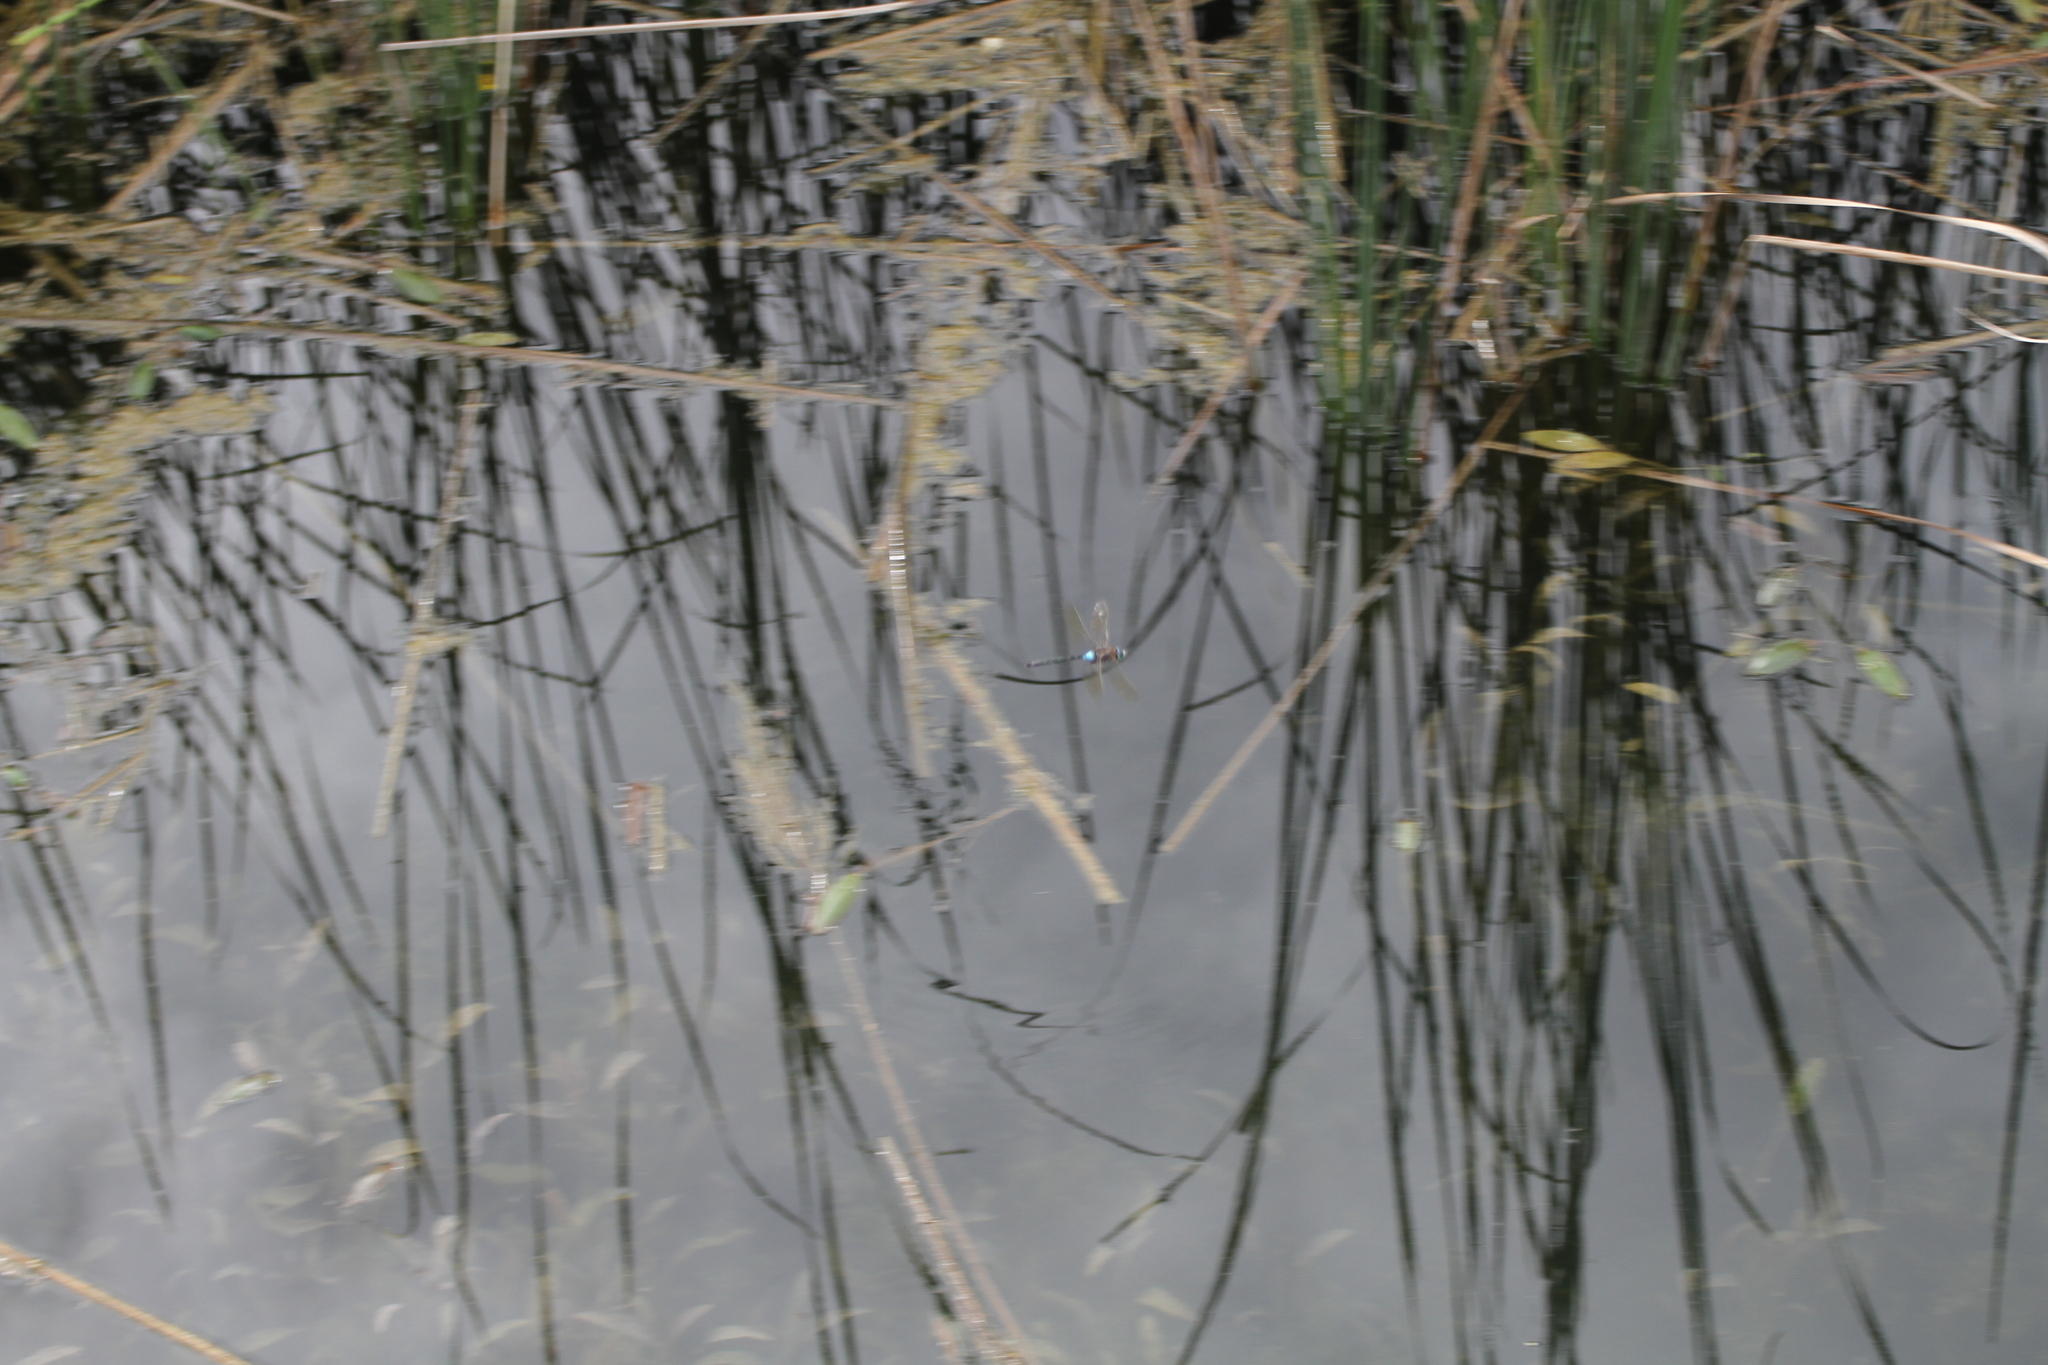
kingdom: Animalia
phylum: Arthropoda
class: Insecta
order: Odonata
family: Aeshnidae
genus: Anax
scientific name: Anax parthenope
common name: Lesser emperor
